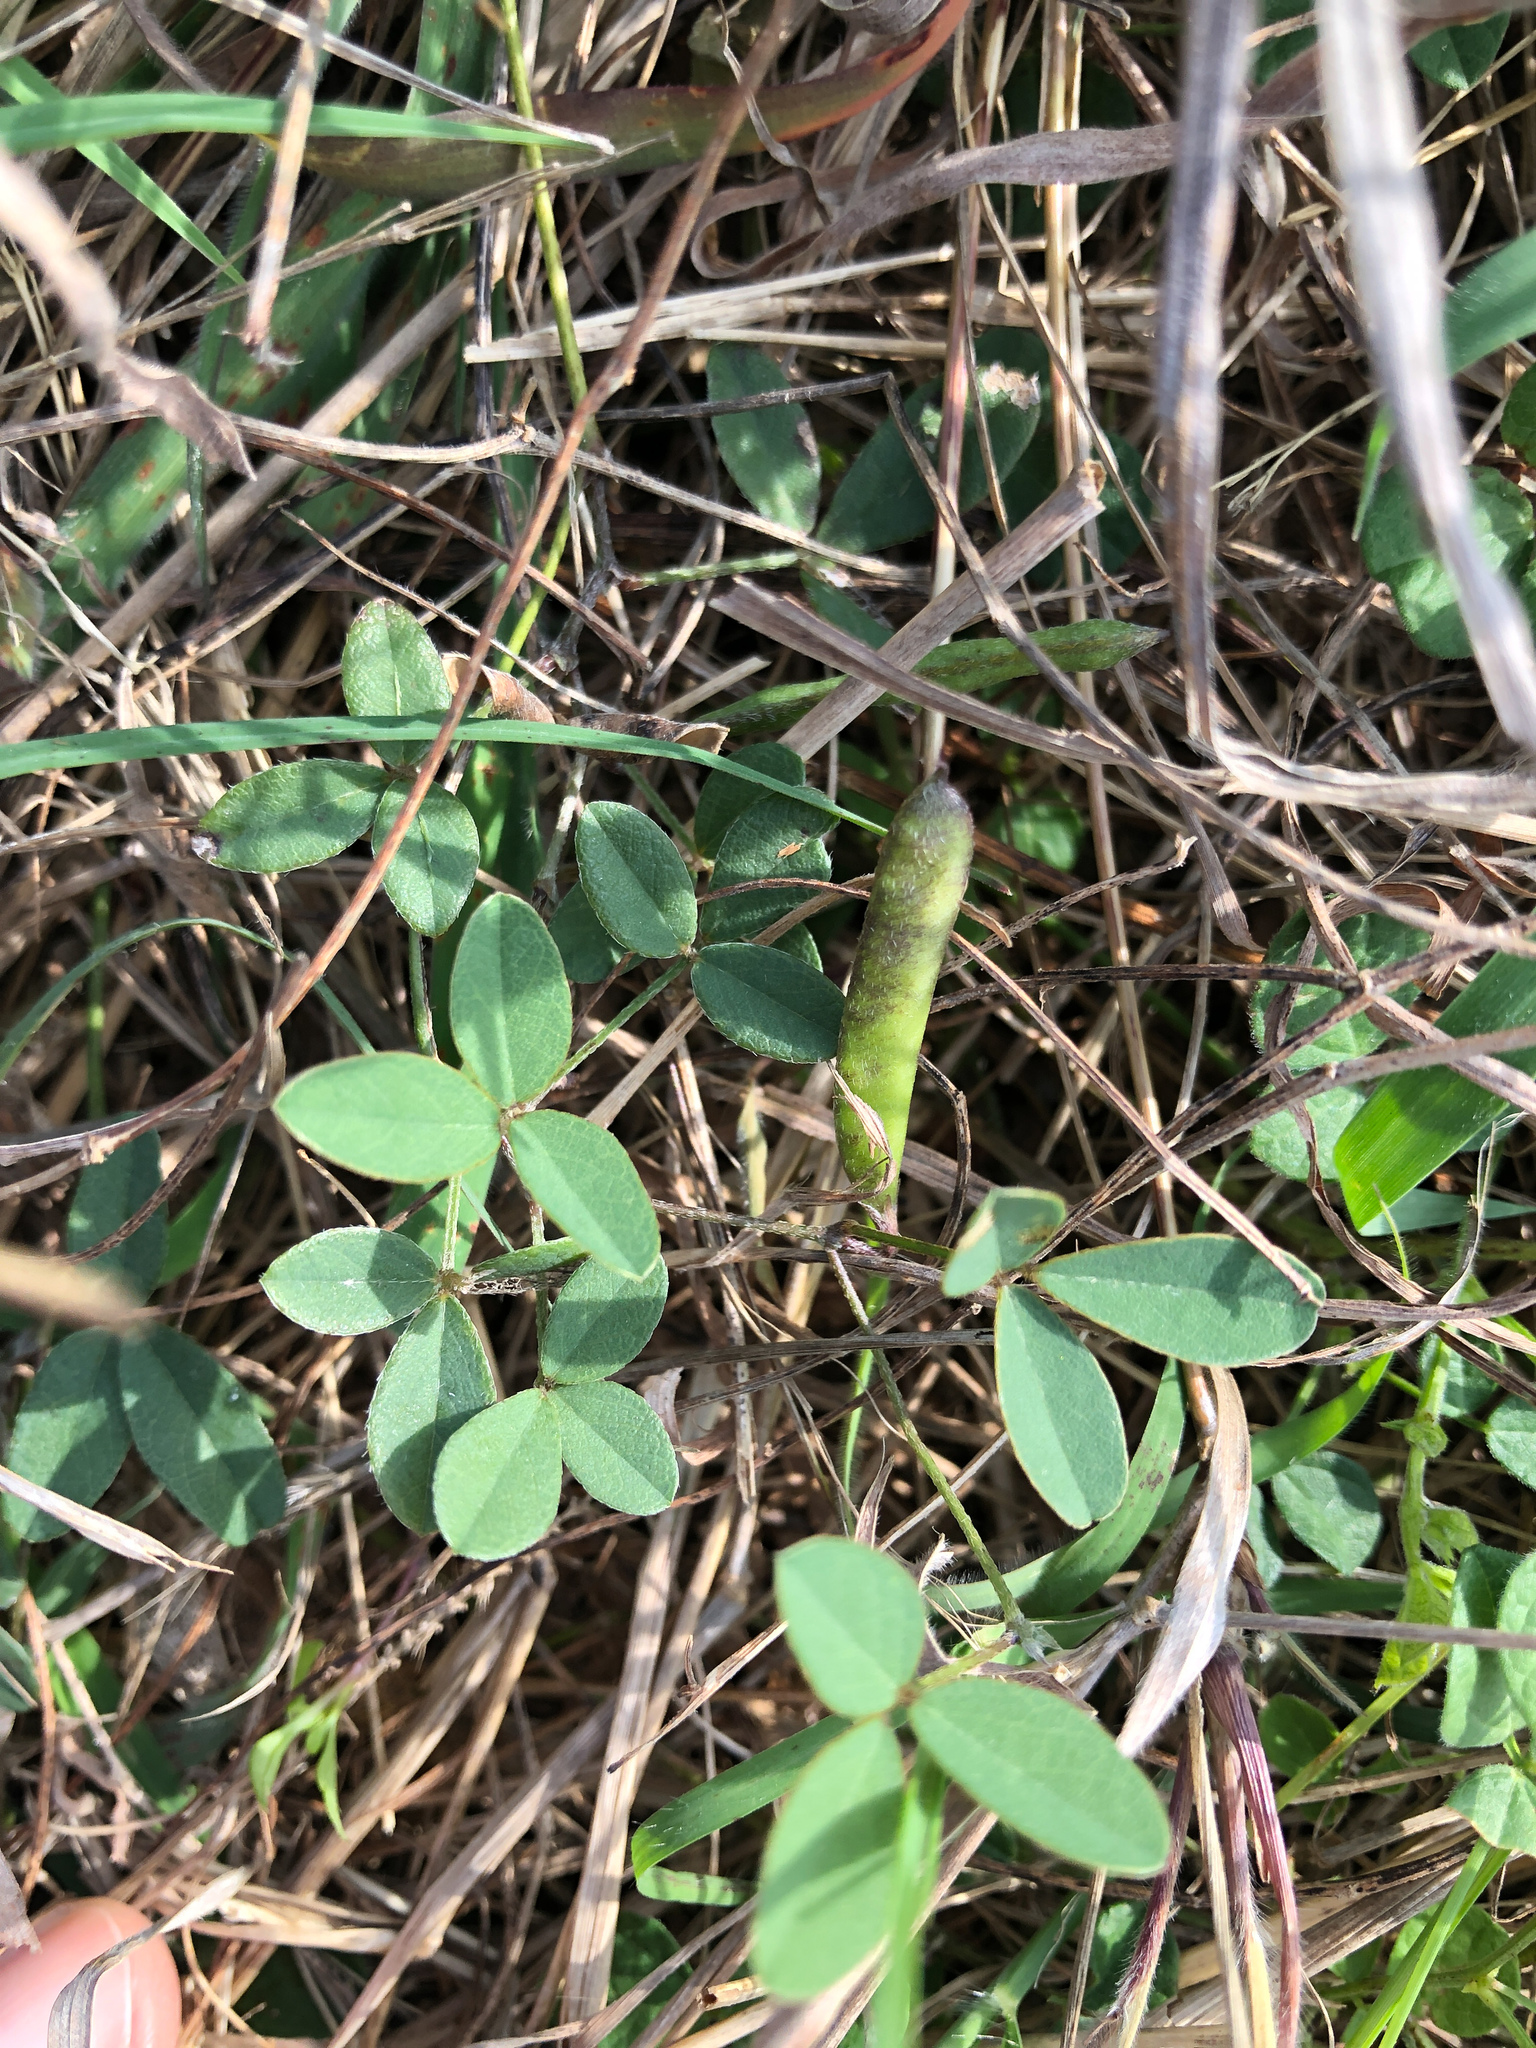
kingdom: Plantae
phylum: Tracheophyta
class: Magnoliopsida
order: Fabales
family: Fabaceae
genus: Glycine
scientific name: Glycine tabacina
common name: Pea glycine
